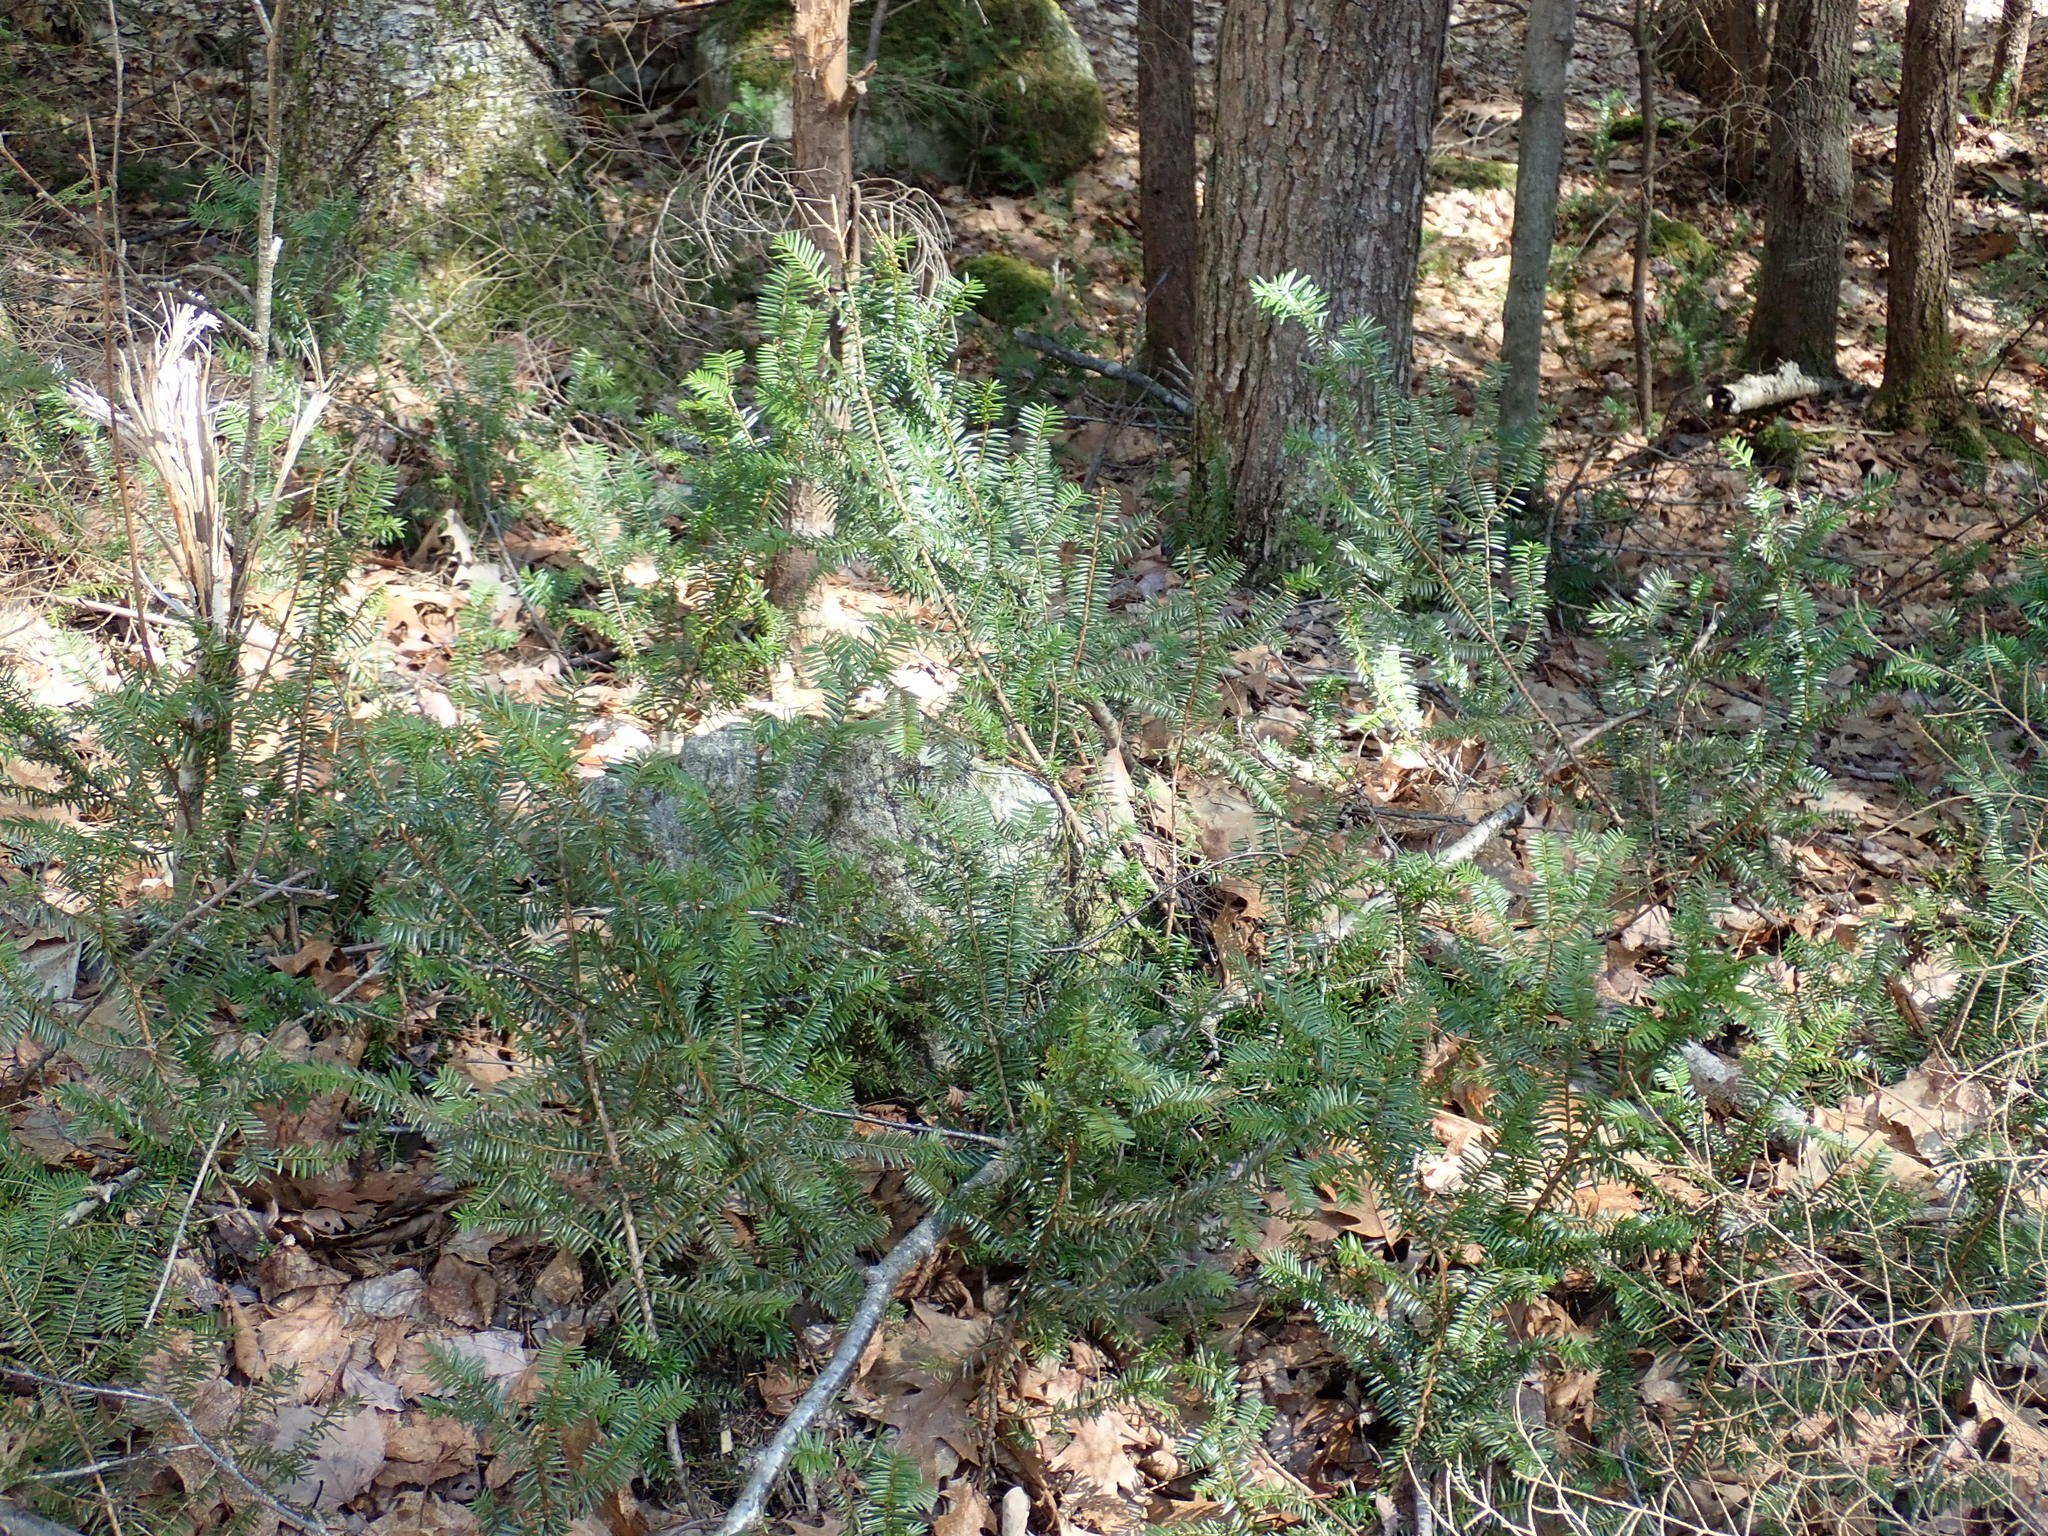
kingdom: Plantae
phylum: Tracheophyta
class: Pinopsida
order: Pinales
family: Taxaceae
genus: Taxus
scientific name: Taxus canadensis
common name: American yew
